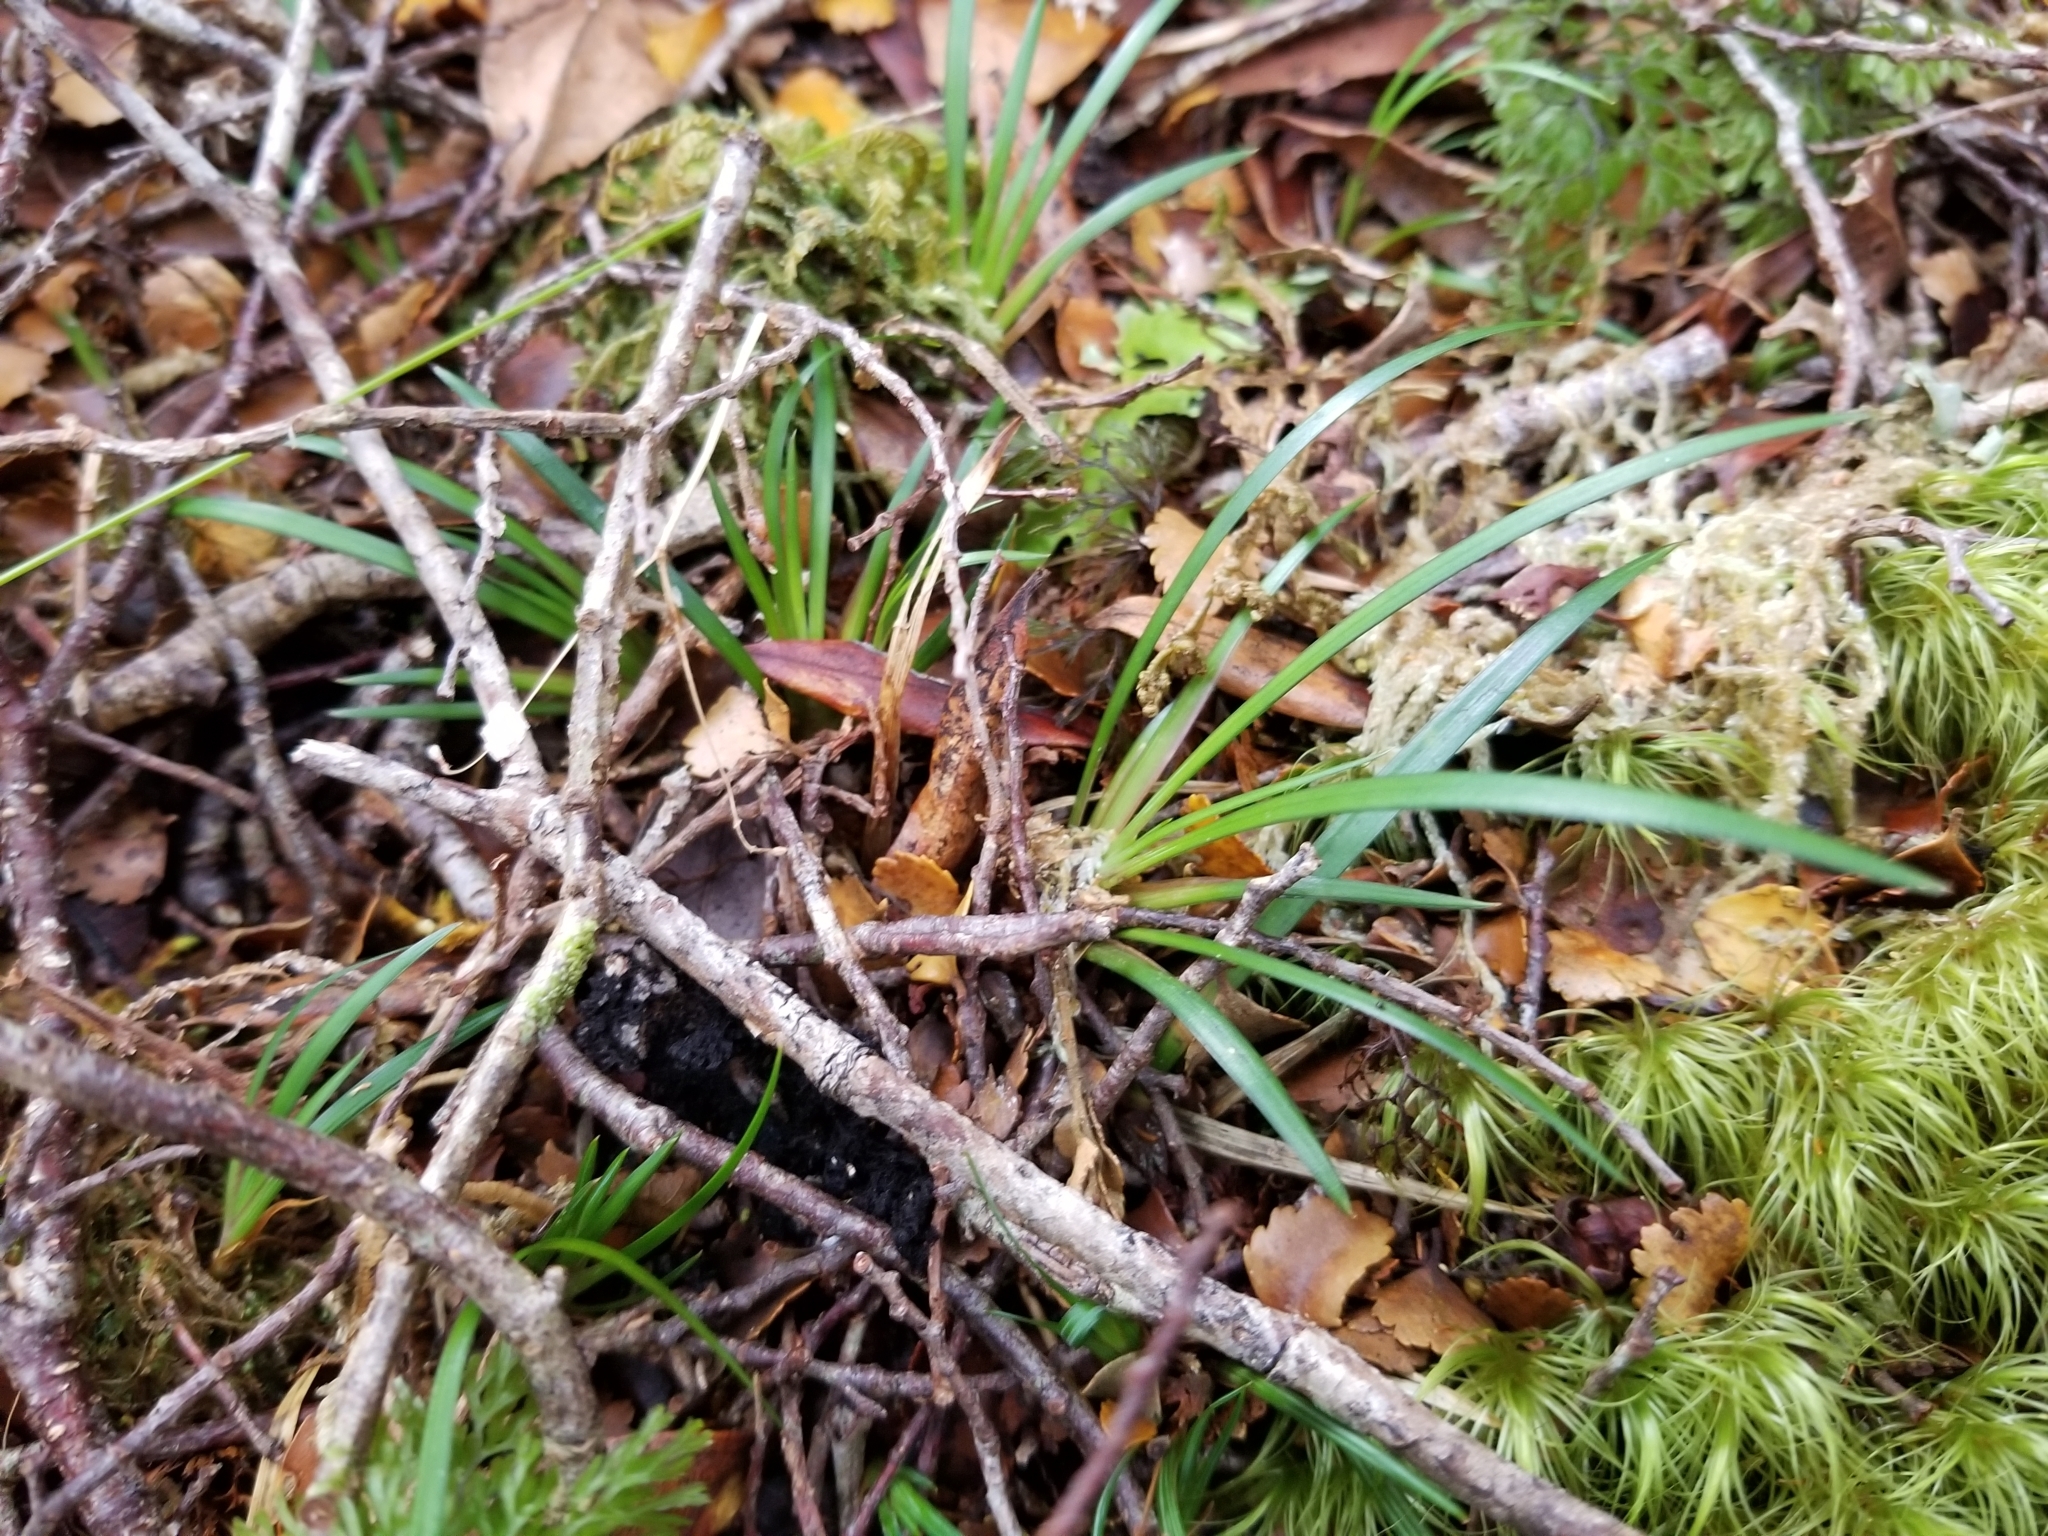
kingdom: Plantae
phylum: Tracheophyta
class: Liliopsida
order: Asparagales
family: Iridaceae
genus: Libertia
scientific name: Libertia micrantha
